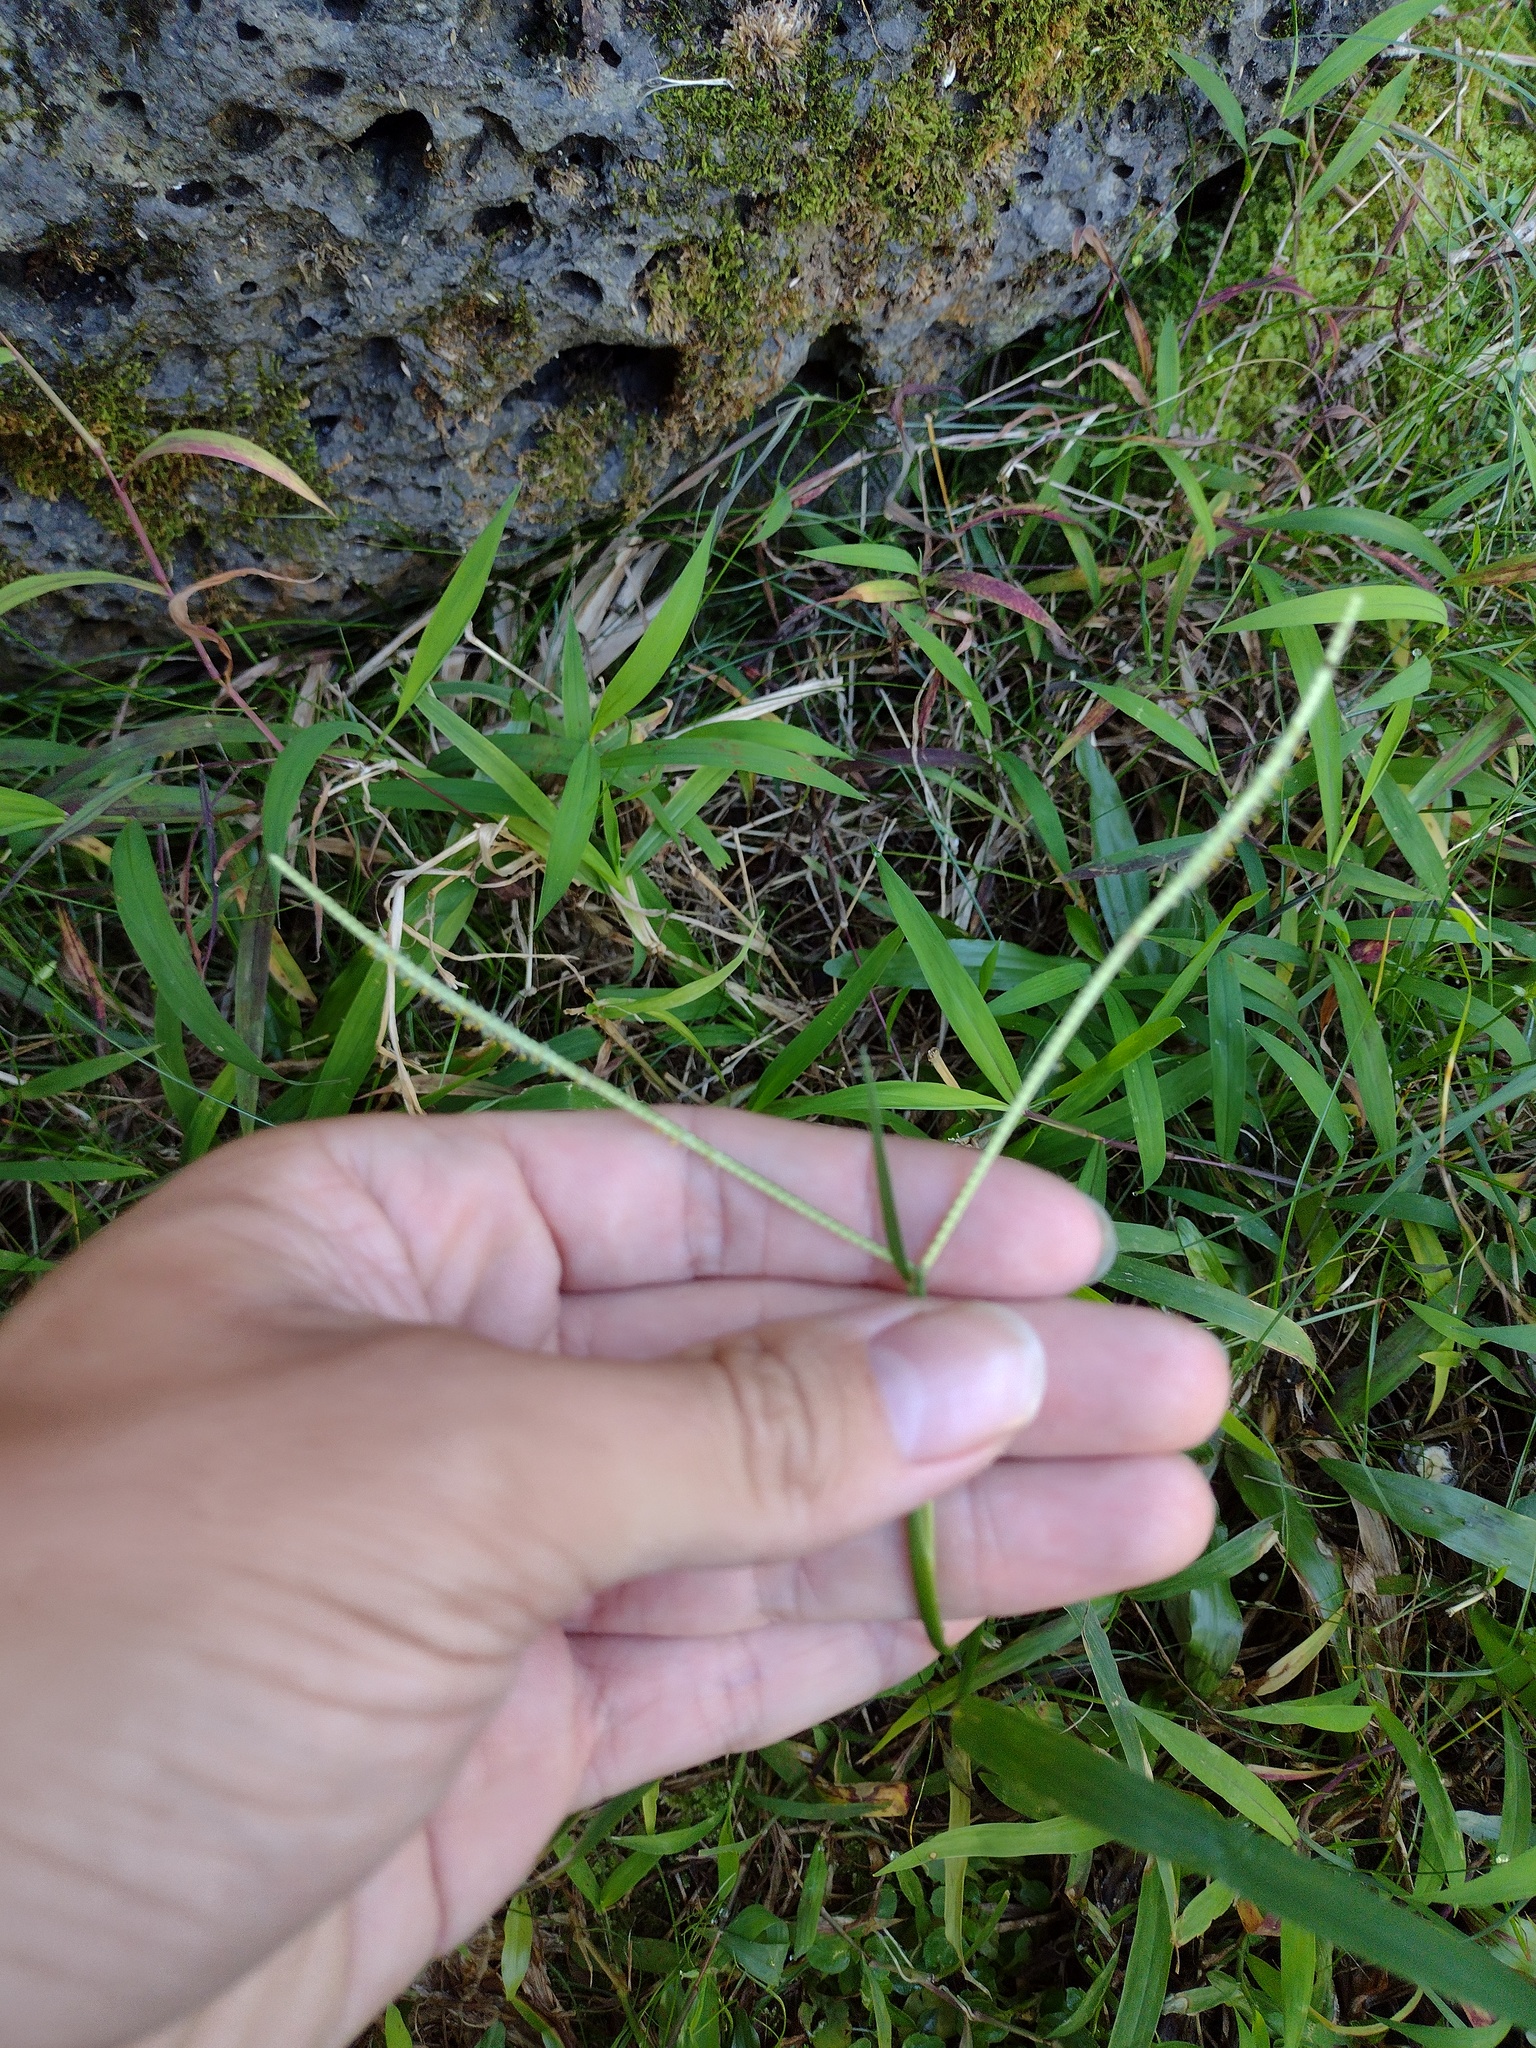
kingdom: Plantae
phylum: Tracheophyta
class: Liliopsida
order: Poales
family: Poaceae
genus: Paspalum
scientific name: Paspalum conjugatum
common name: Hilograss
